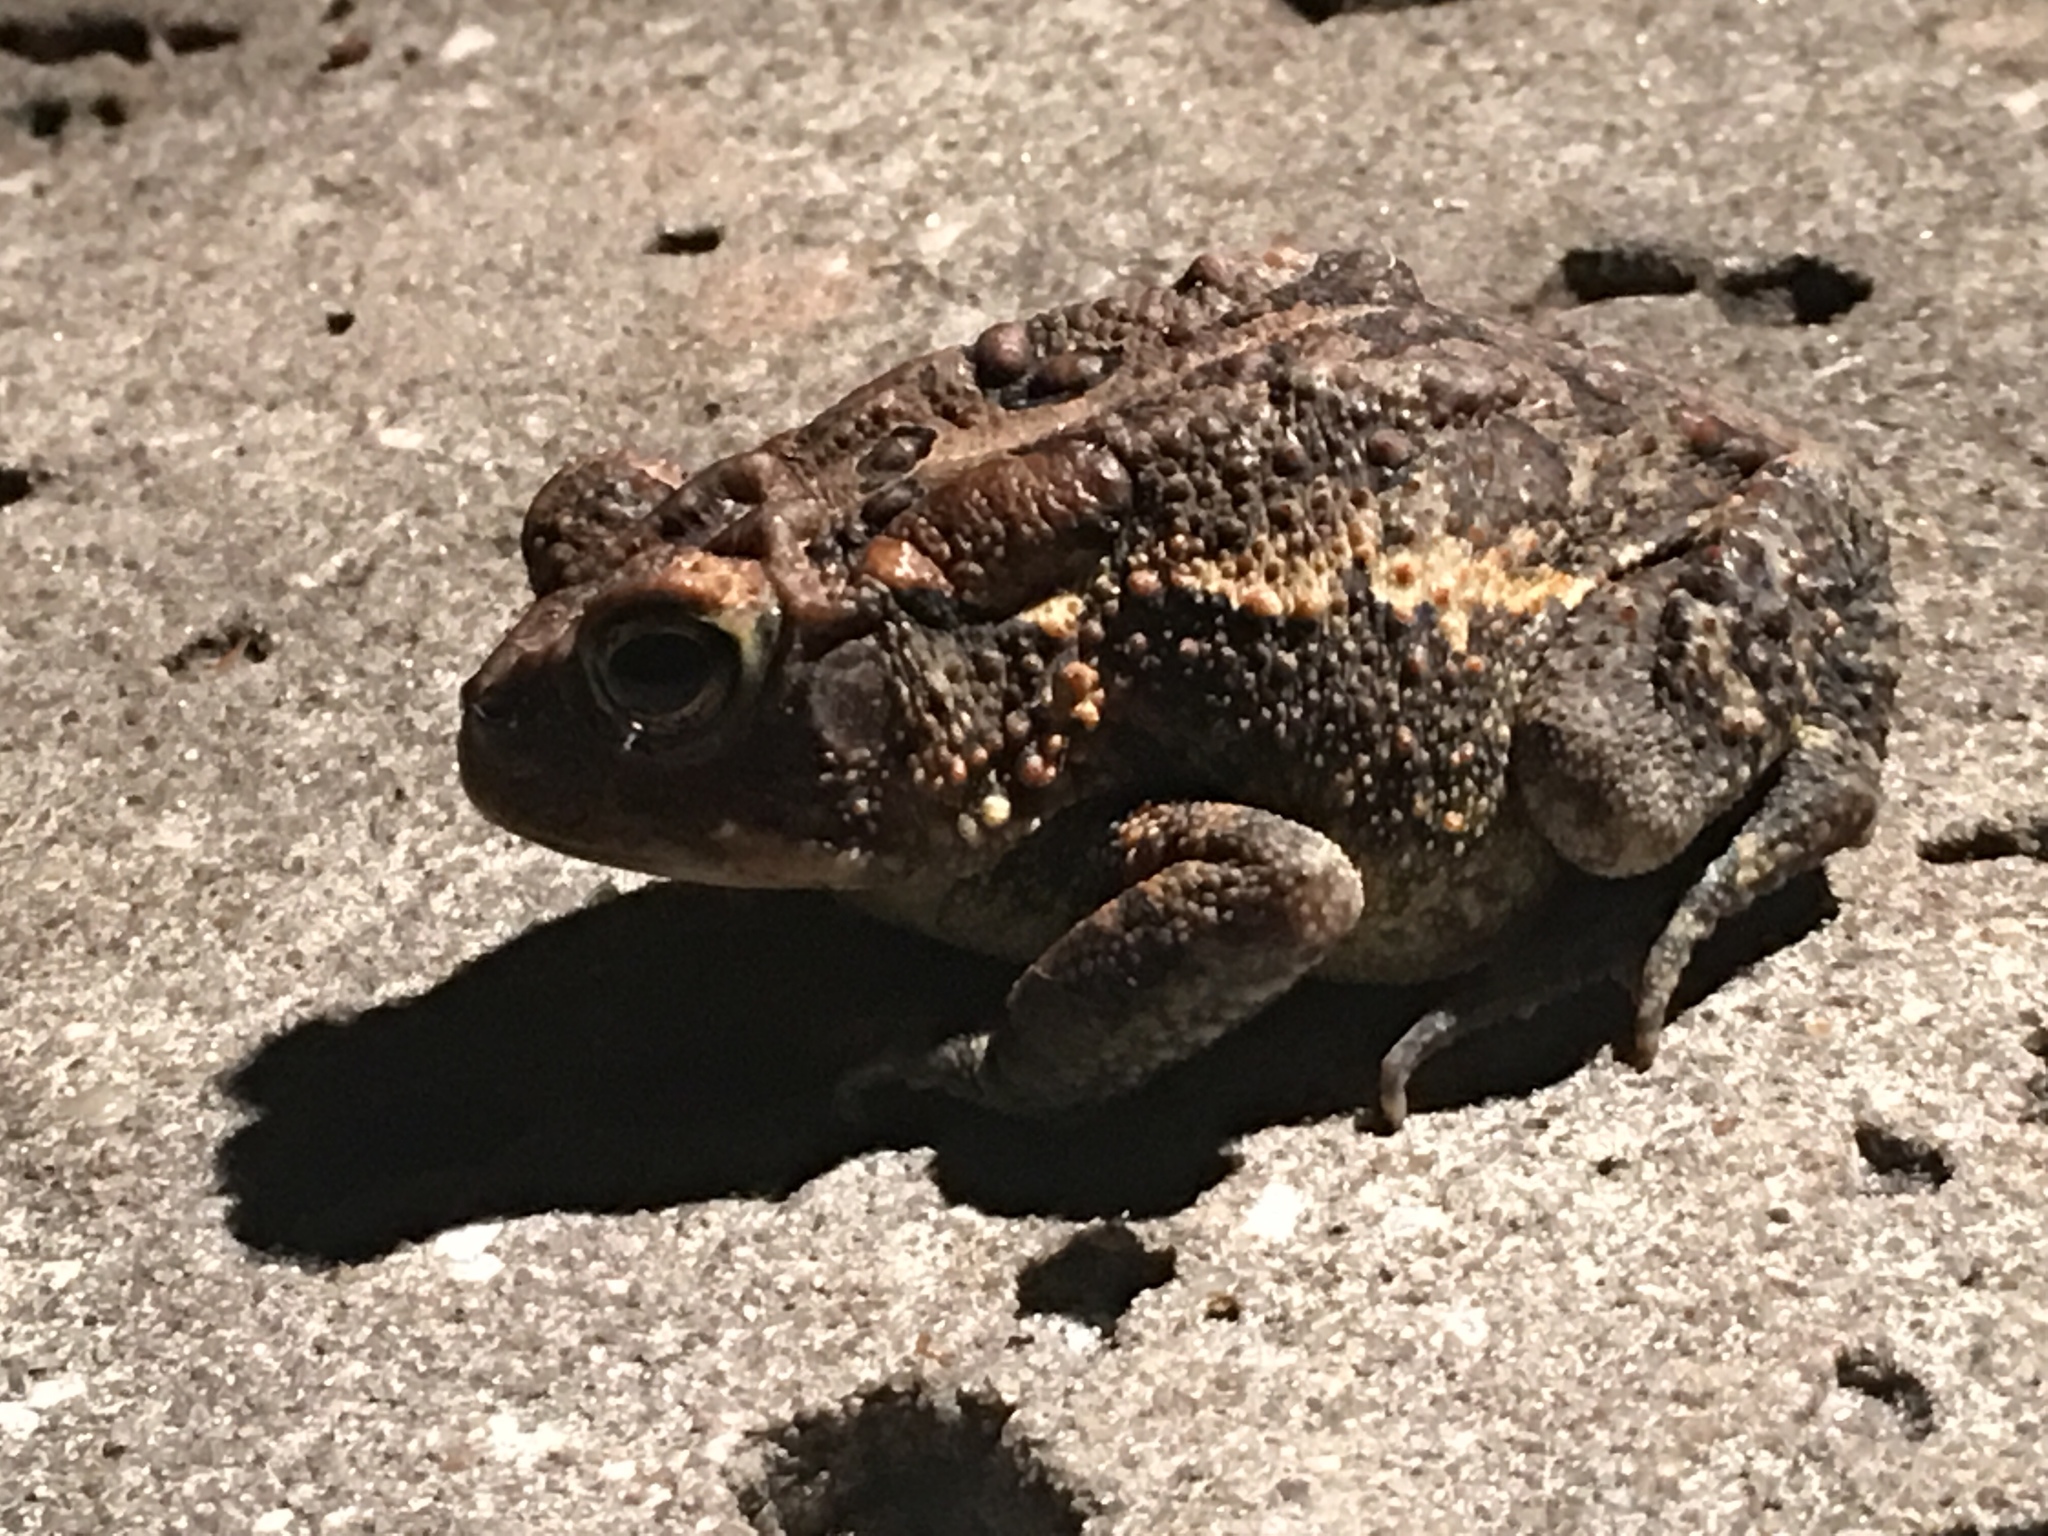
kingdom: Animalia
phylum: Chordata
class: Amphibia
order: Anura
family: Bufonidae
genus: Anaxyrus
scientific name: Anaxyrus terrestris
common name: Southern toad
